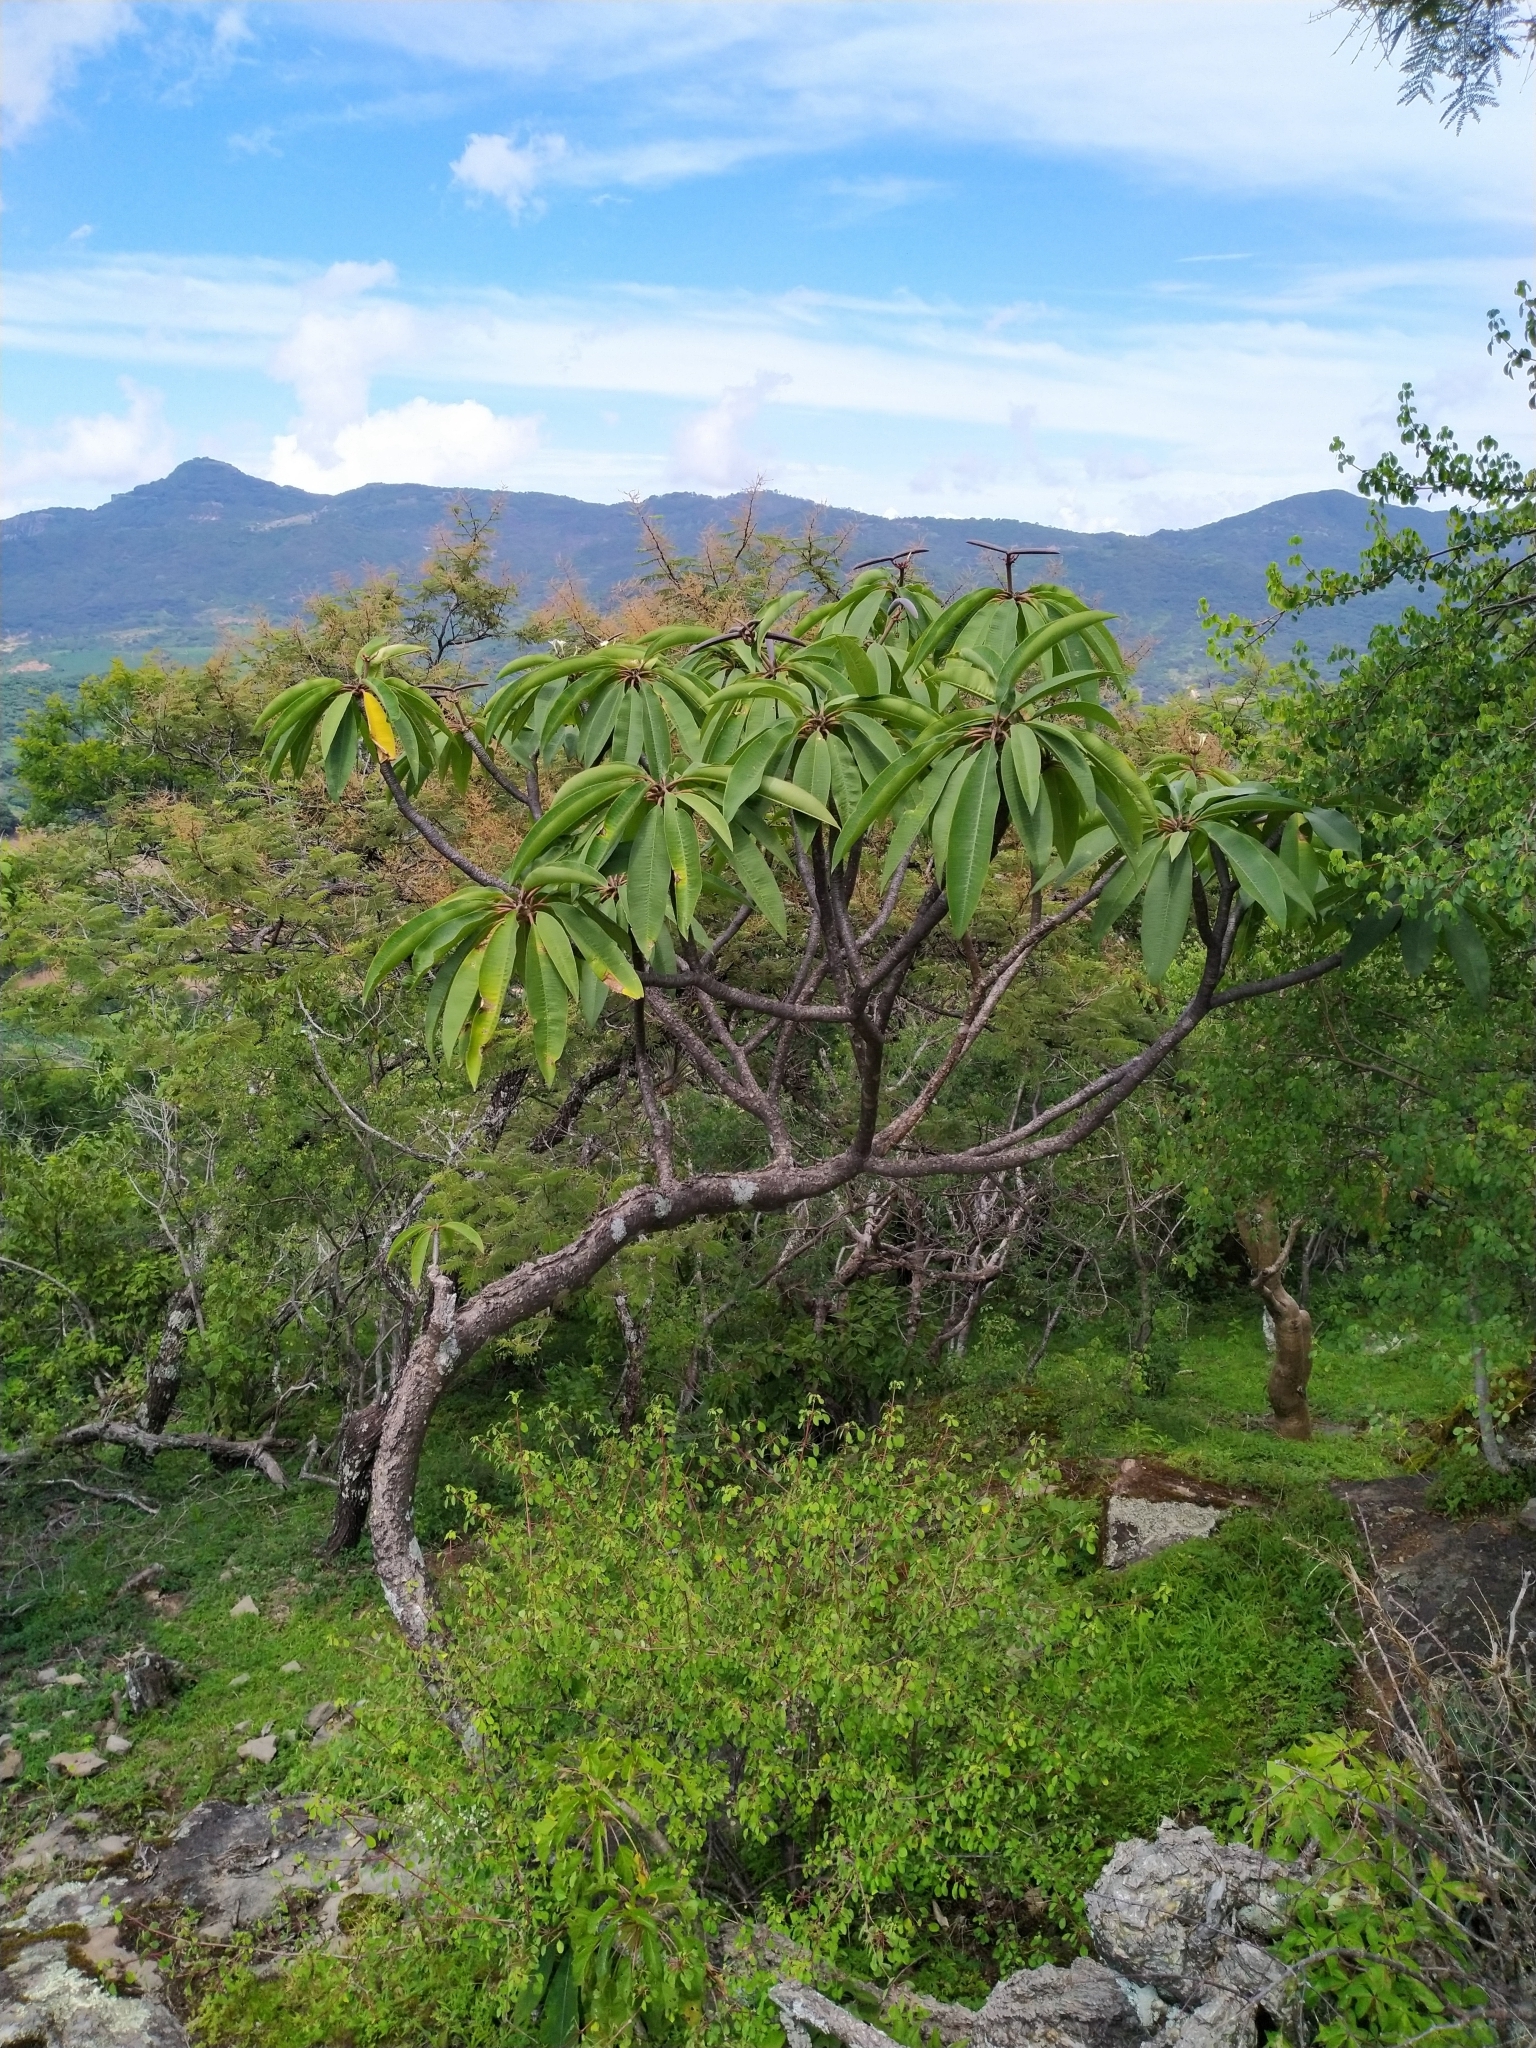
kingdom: Plantae
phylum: Tracheophyta
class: Magnoliopsida
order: Gentianales
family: Apocynaceae
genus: Plumeria
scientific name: Plumeria rubra
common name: Pagoda-tree
